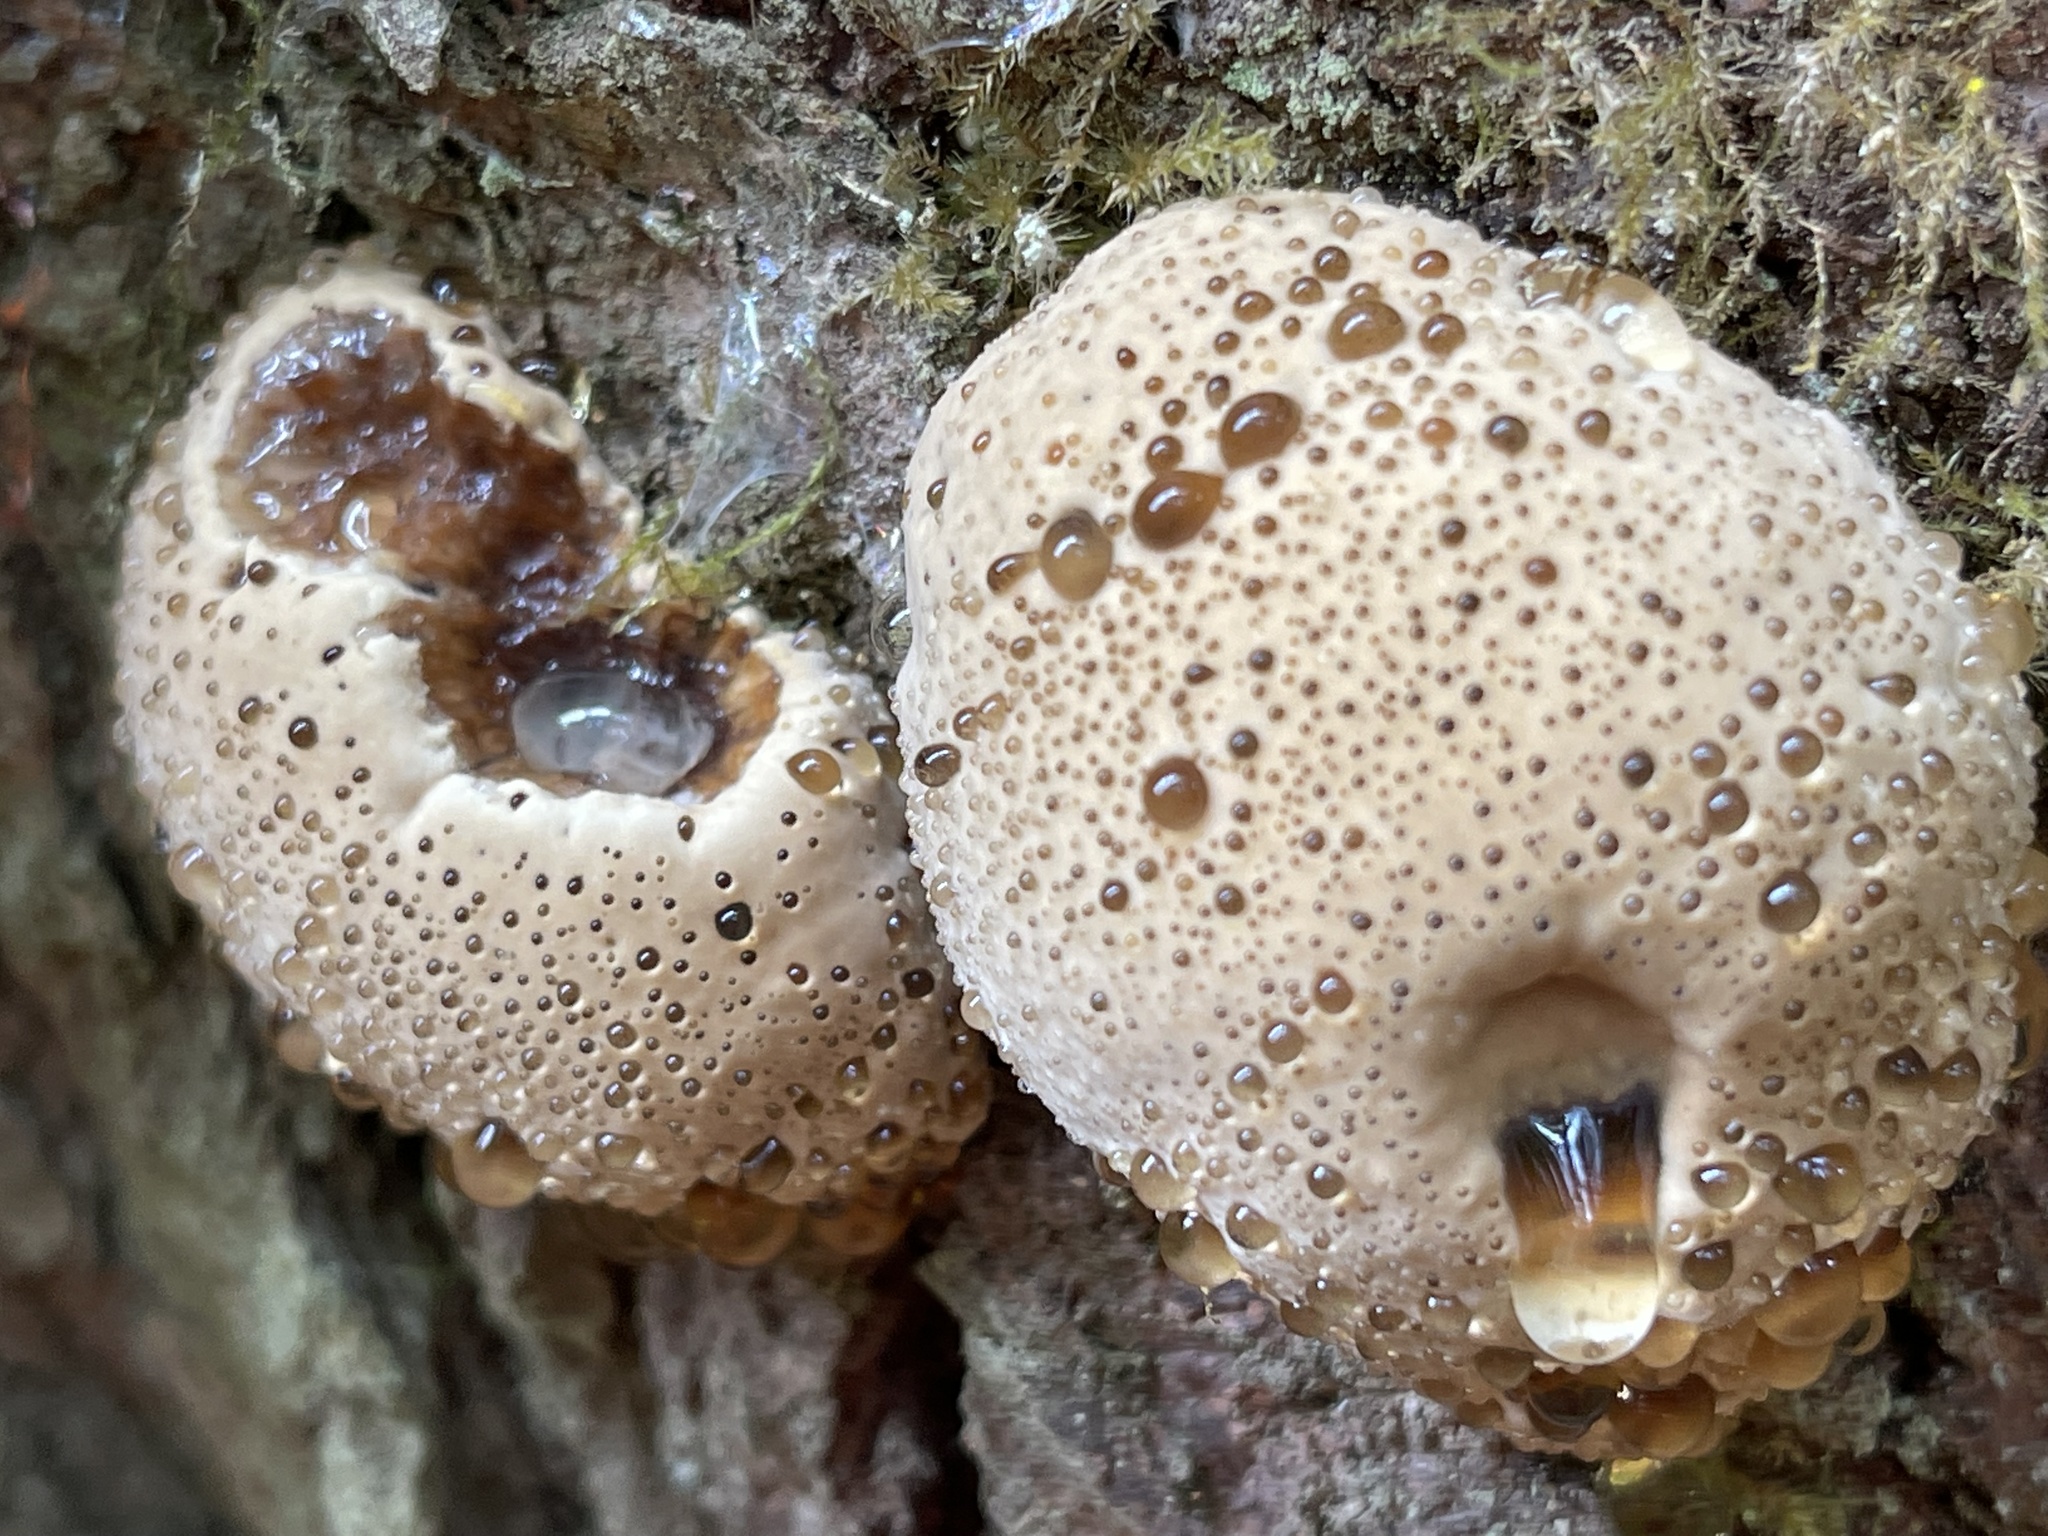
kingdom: Fungi
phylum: Basidiomycota
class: Agaricomycetes
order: Hymenochaetales
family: Hymenochaetaceae
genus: Pseudoinonotus
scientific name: Pseudoinonotus dryadeus
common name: Oak bracket
